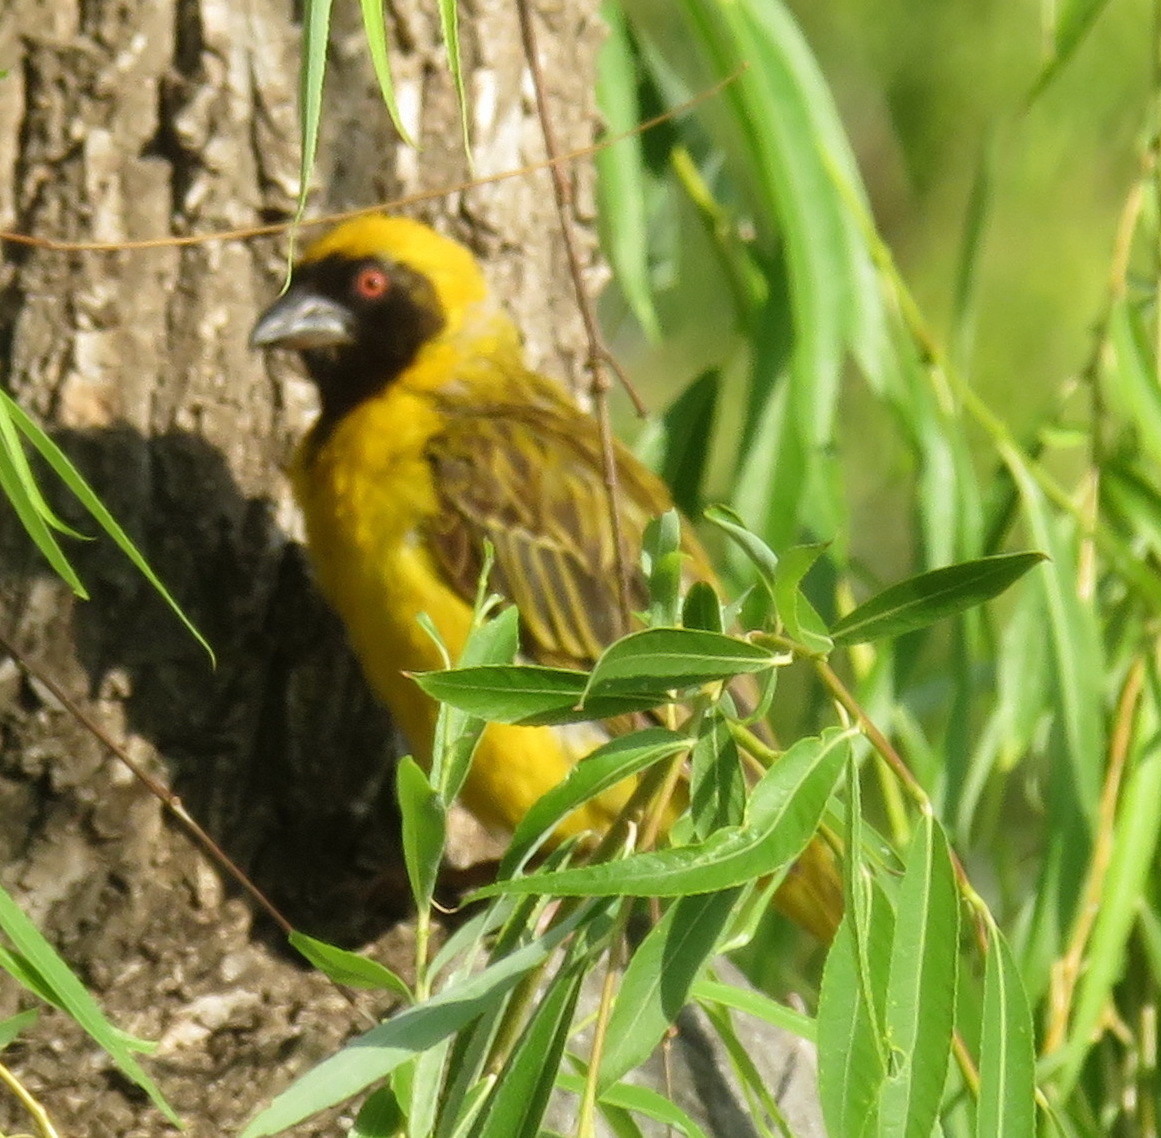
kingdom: Animalia
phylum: Chordata
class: Aves
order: Passeriformes
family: Ploceidae
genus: Ploceus
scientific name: Ploceus velatus
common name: Southern masked weaver
